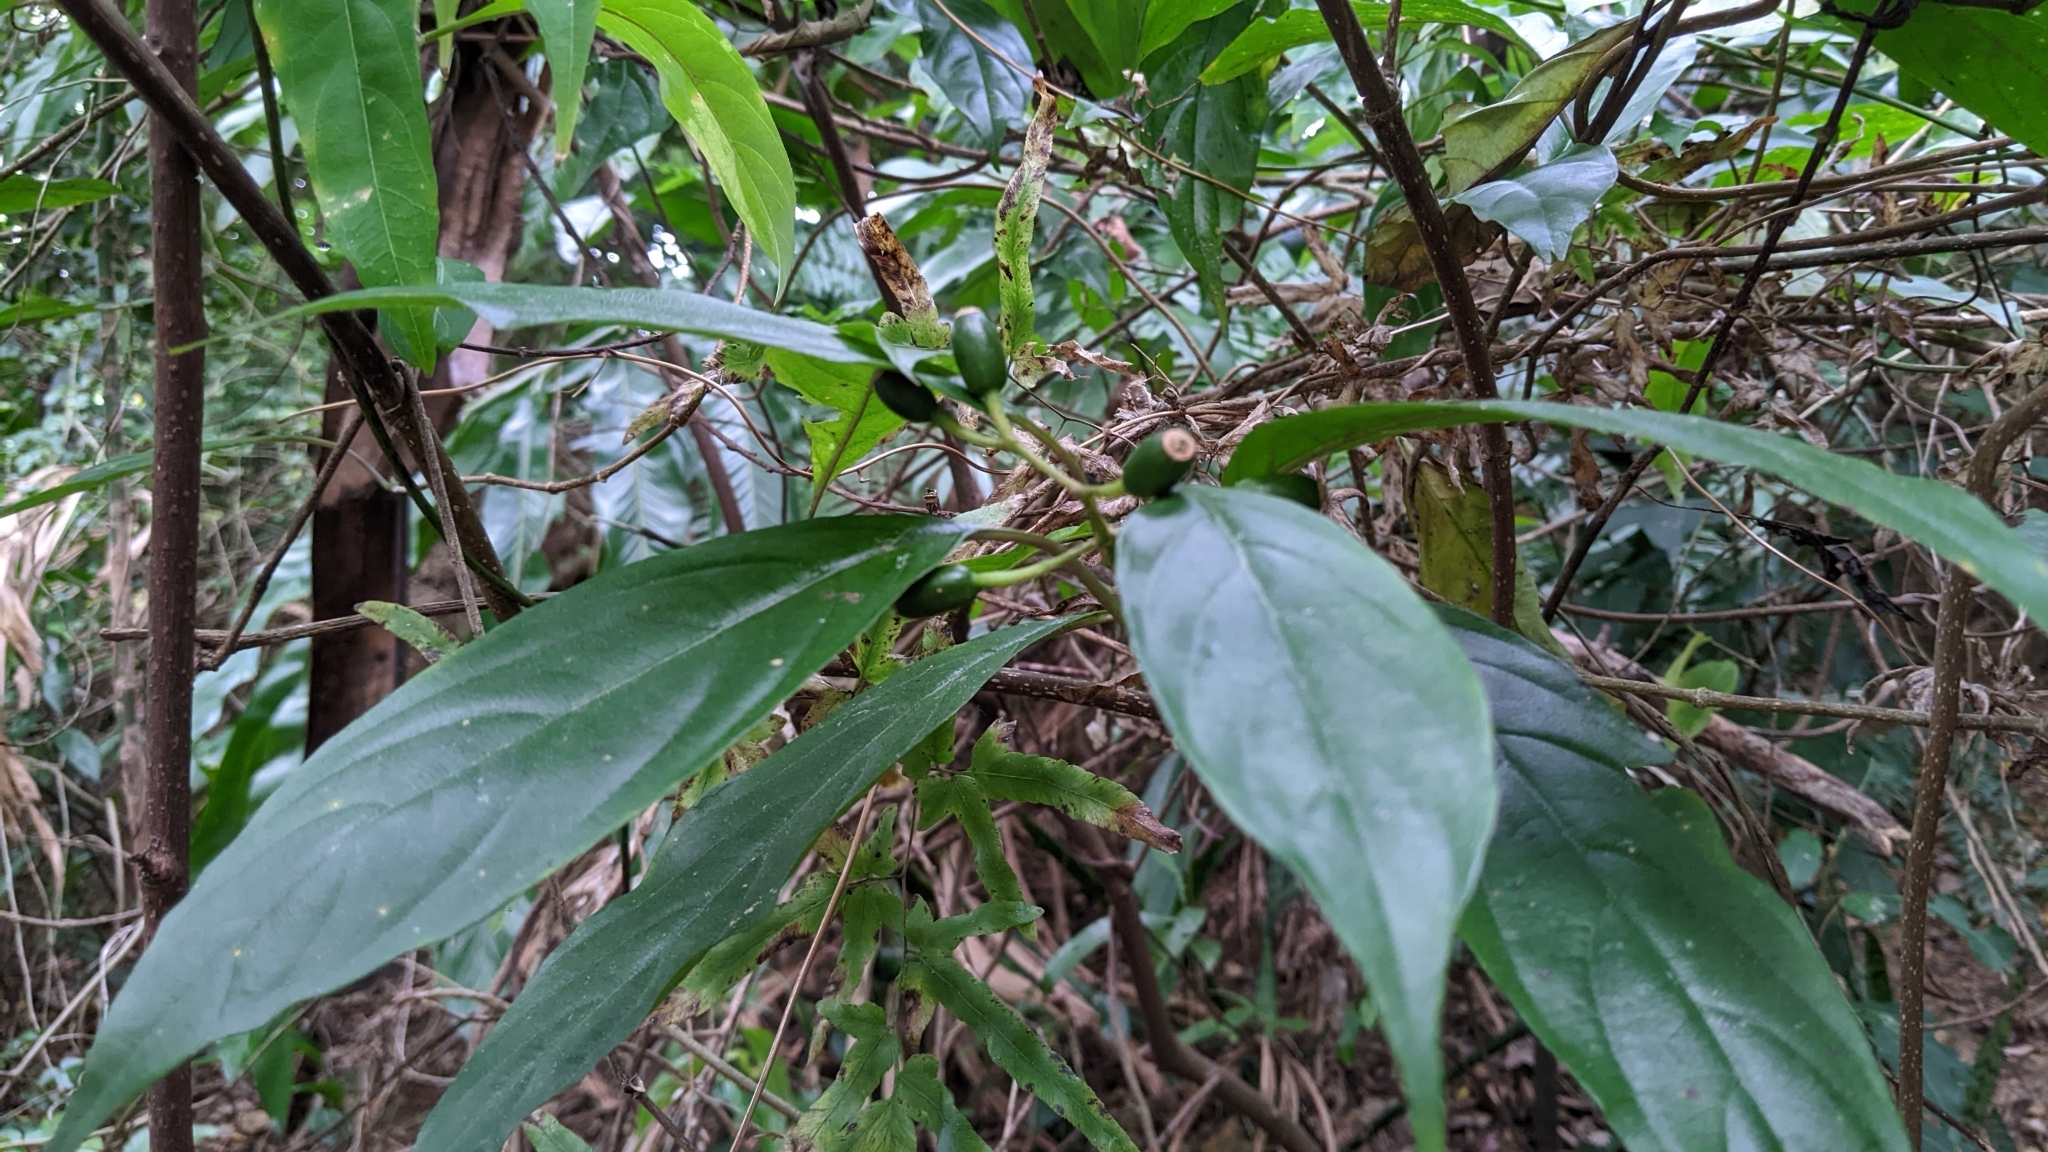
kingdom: Plantae
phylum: Tracheophyta
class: Magnoliopsida
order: Gentianales
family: Rubiaceae
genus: Mussaenda
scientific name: Mussaenda parviflora
